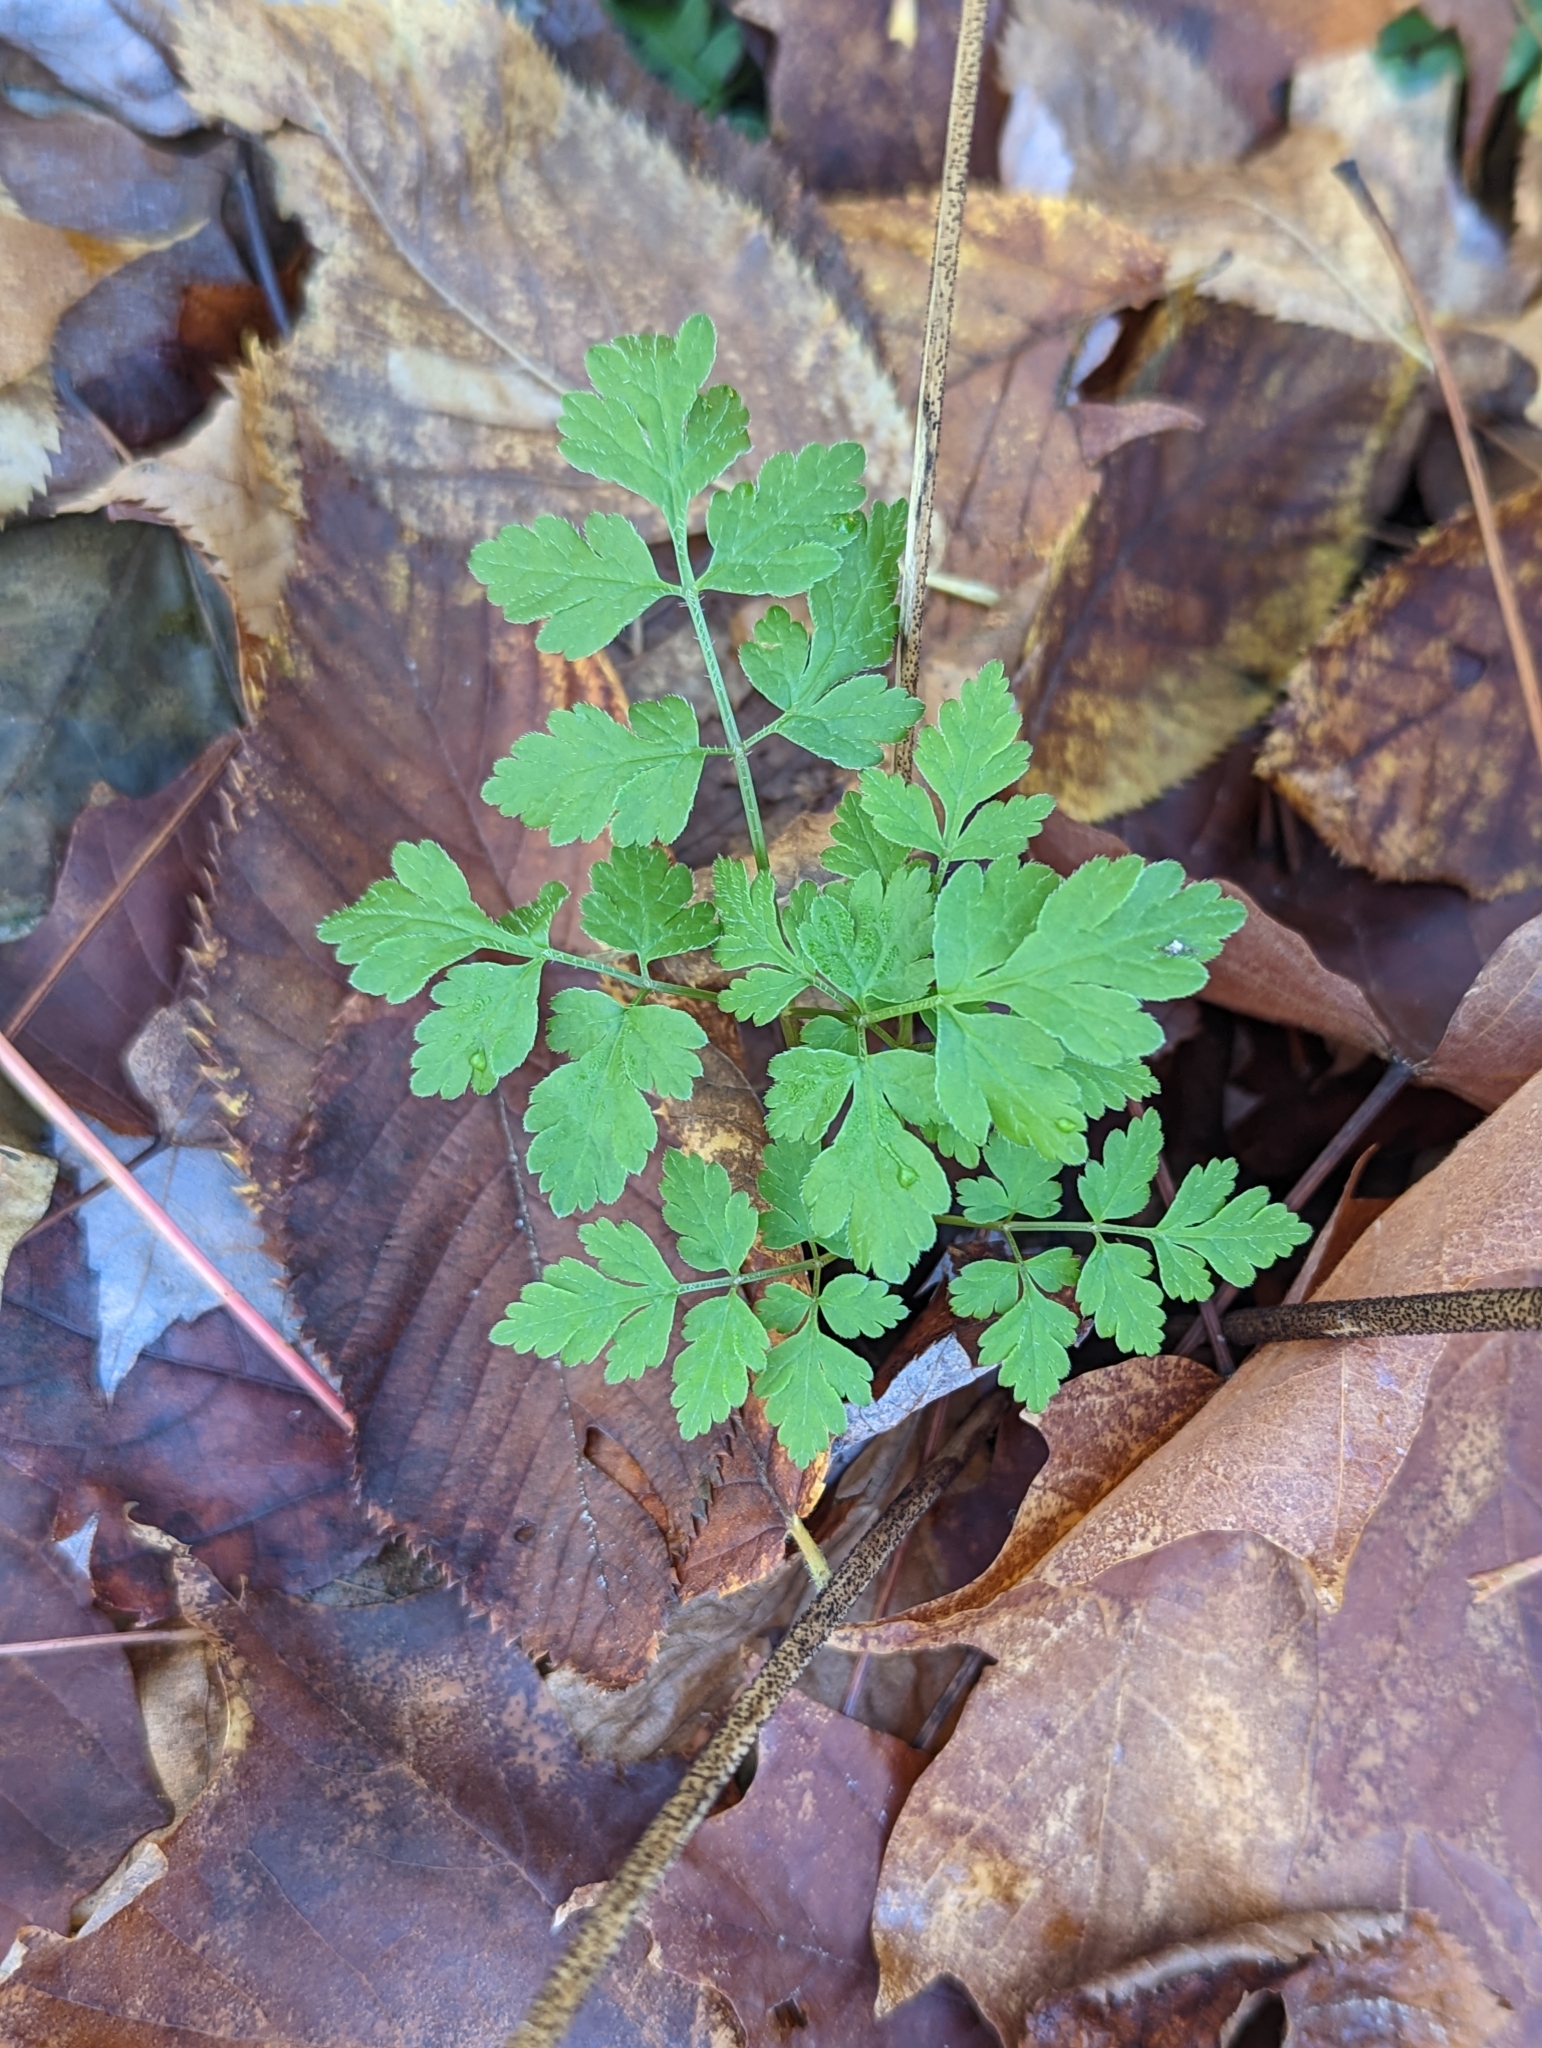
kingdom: Plantae
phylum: Tracheophyta
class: Magnoliopsida
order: Apiales
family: Apiaceae
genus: Osmorhiza
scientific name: Osmorhiza claytonii
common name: Hairy sweet cicely
